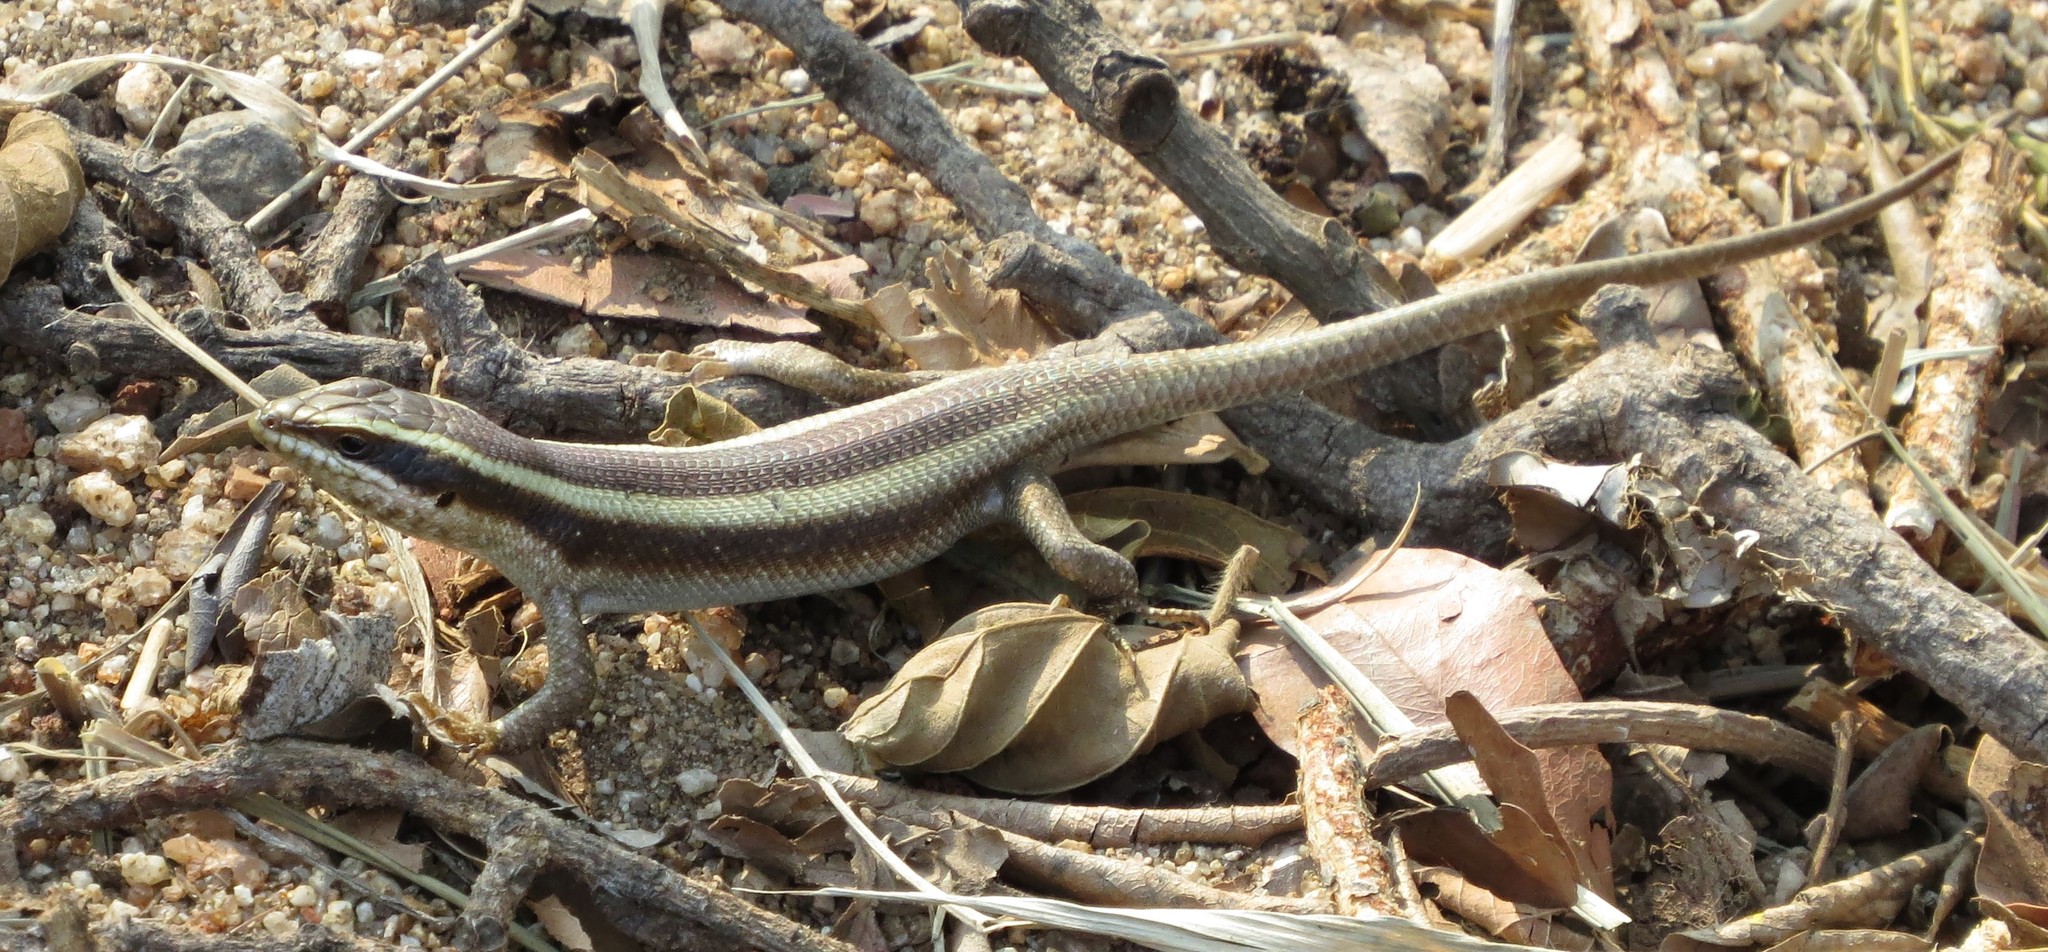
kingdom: Animalia
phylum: Chordata
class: Squamata
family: Scincidae
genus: Trachylepis
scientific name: Trachylepis striata
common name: African striped mabuya
